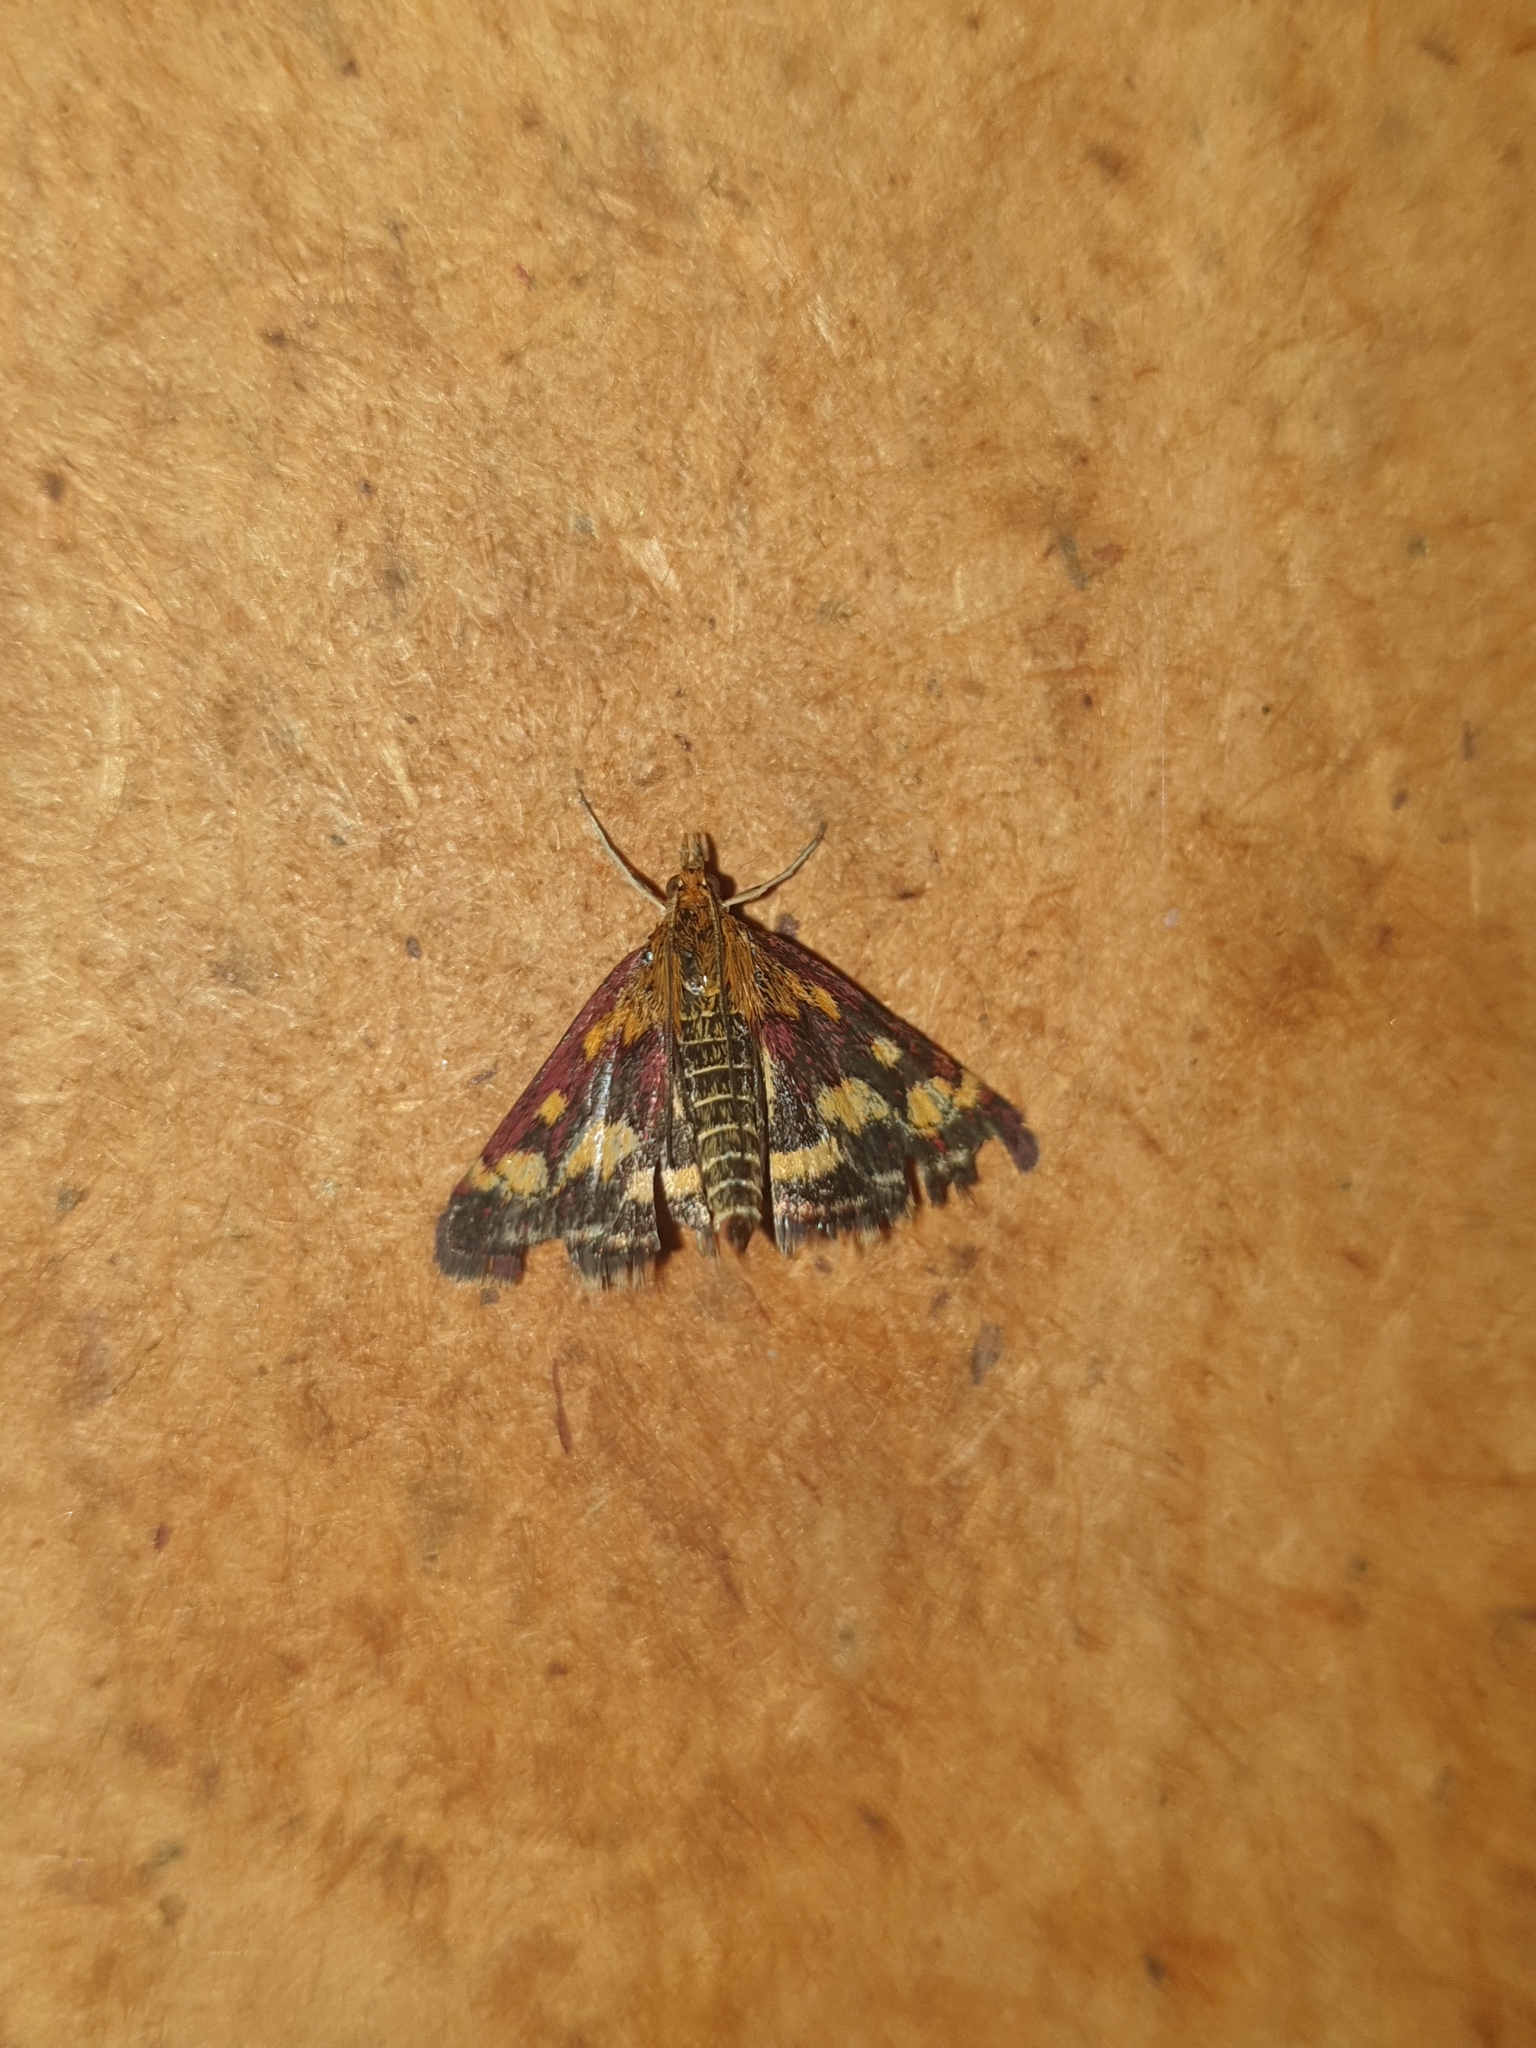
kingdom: Animalia
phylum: Arthropoda
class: Insecta
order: Lepidoptera
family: Crambidae
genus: Pyrausta
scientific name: Pyrausta purpuralis
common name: Common purple & gold
